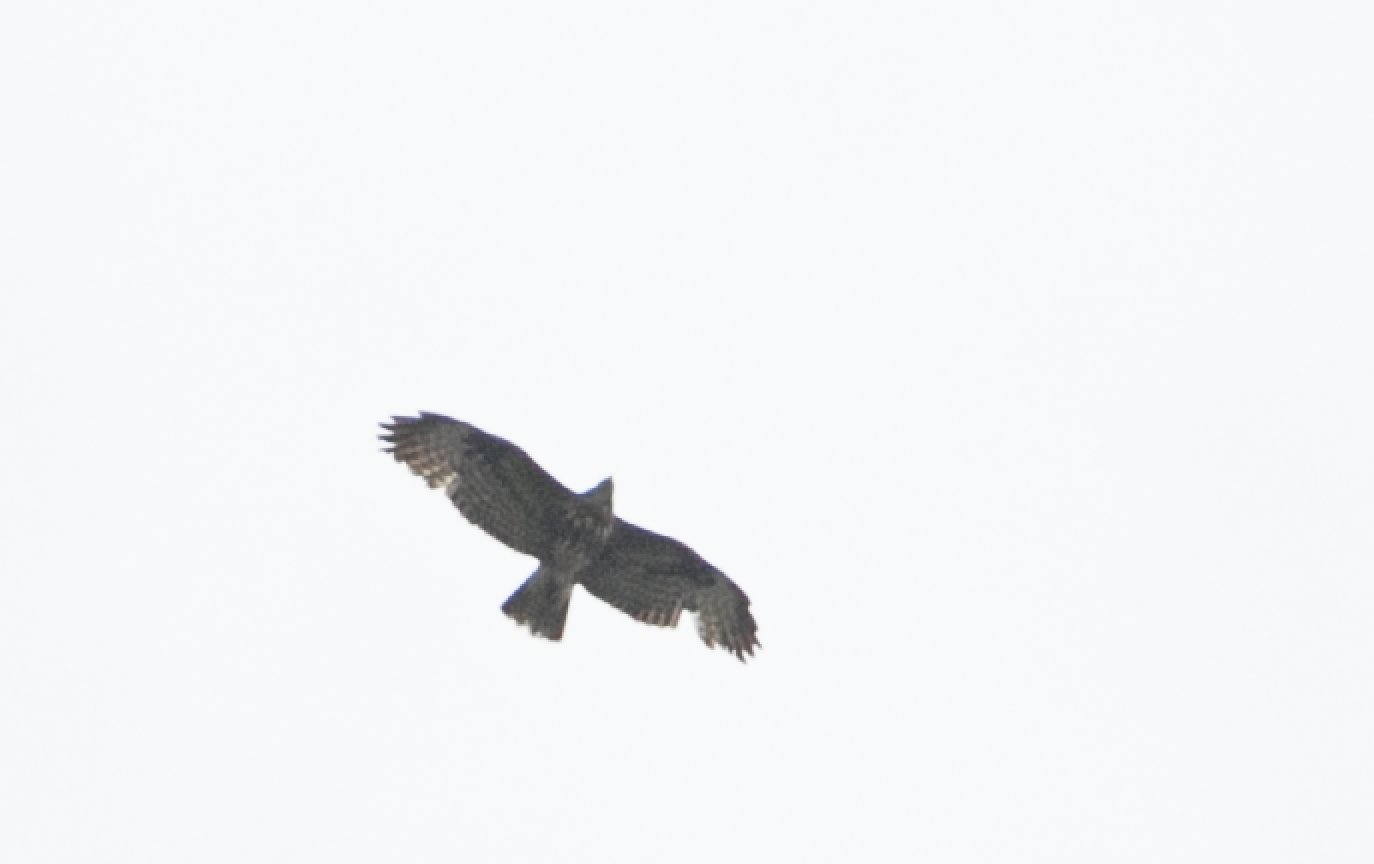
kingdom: Animalia
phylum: Chordata
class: Aves
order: Accipitriformes
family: Accipitridae
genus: Buteo
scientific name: Buteo buteo
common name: Common buzzard
